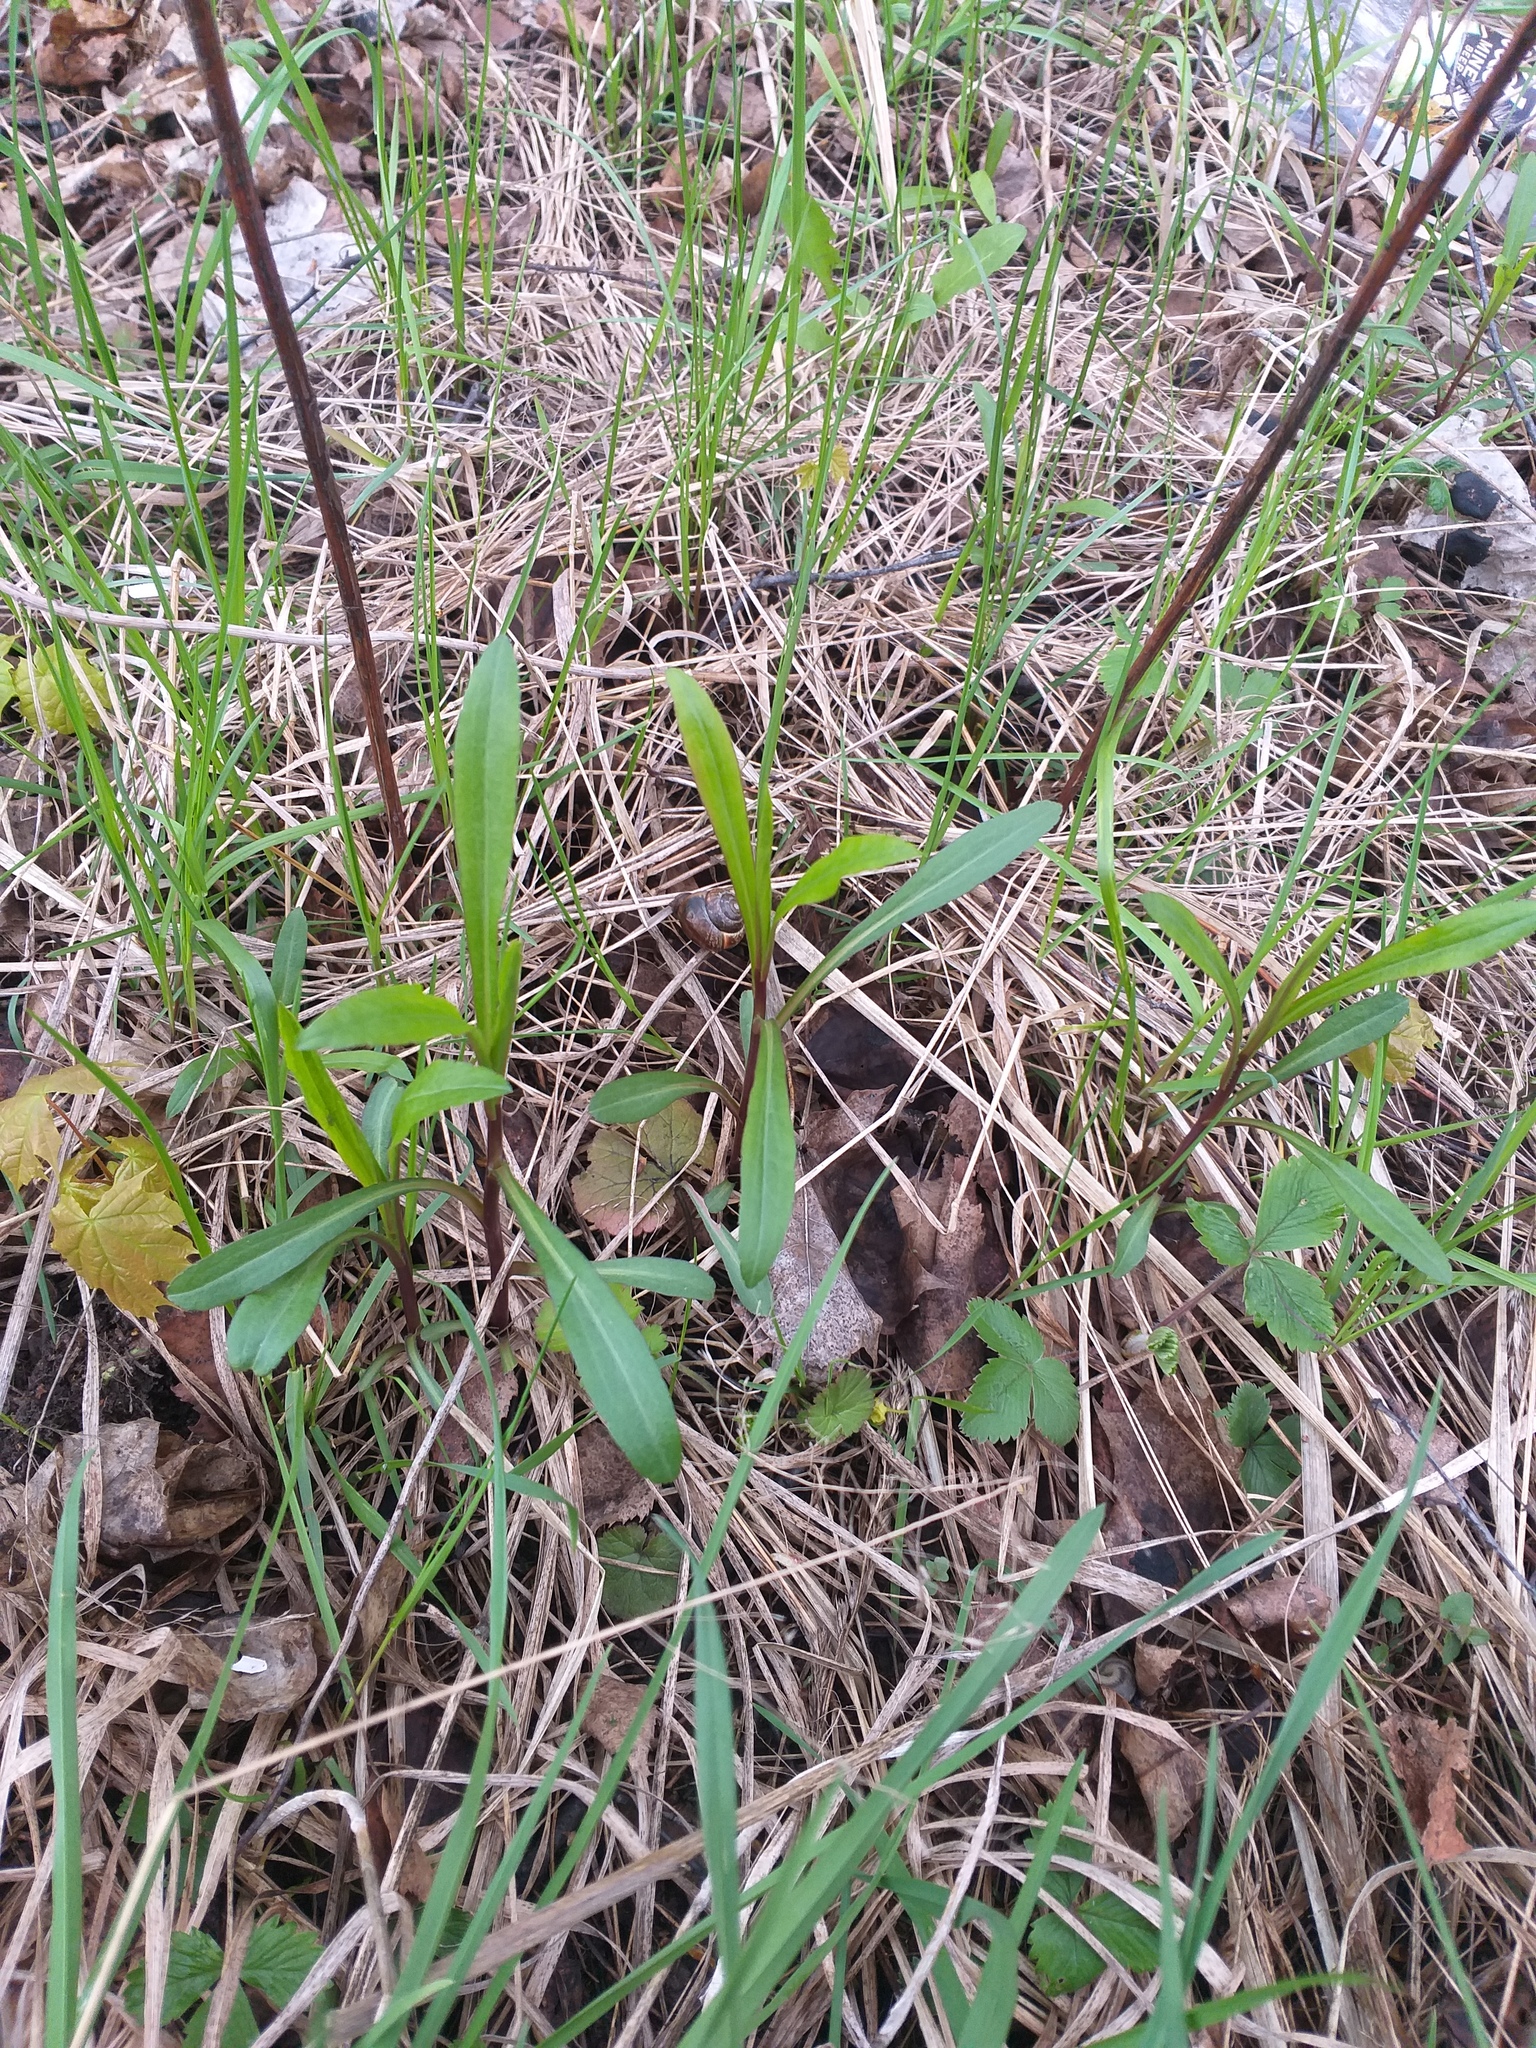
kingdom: Plantae
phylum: Tracheophyta
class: Magnoliopsida
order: Asterales
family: Asteraceae
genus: Solidago
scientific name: Solidago gigantea
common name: Giant goldenrod
